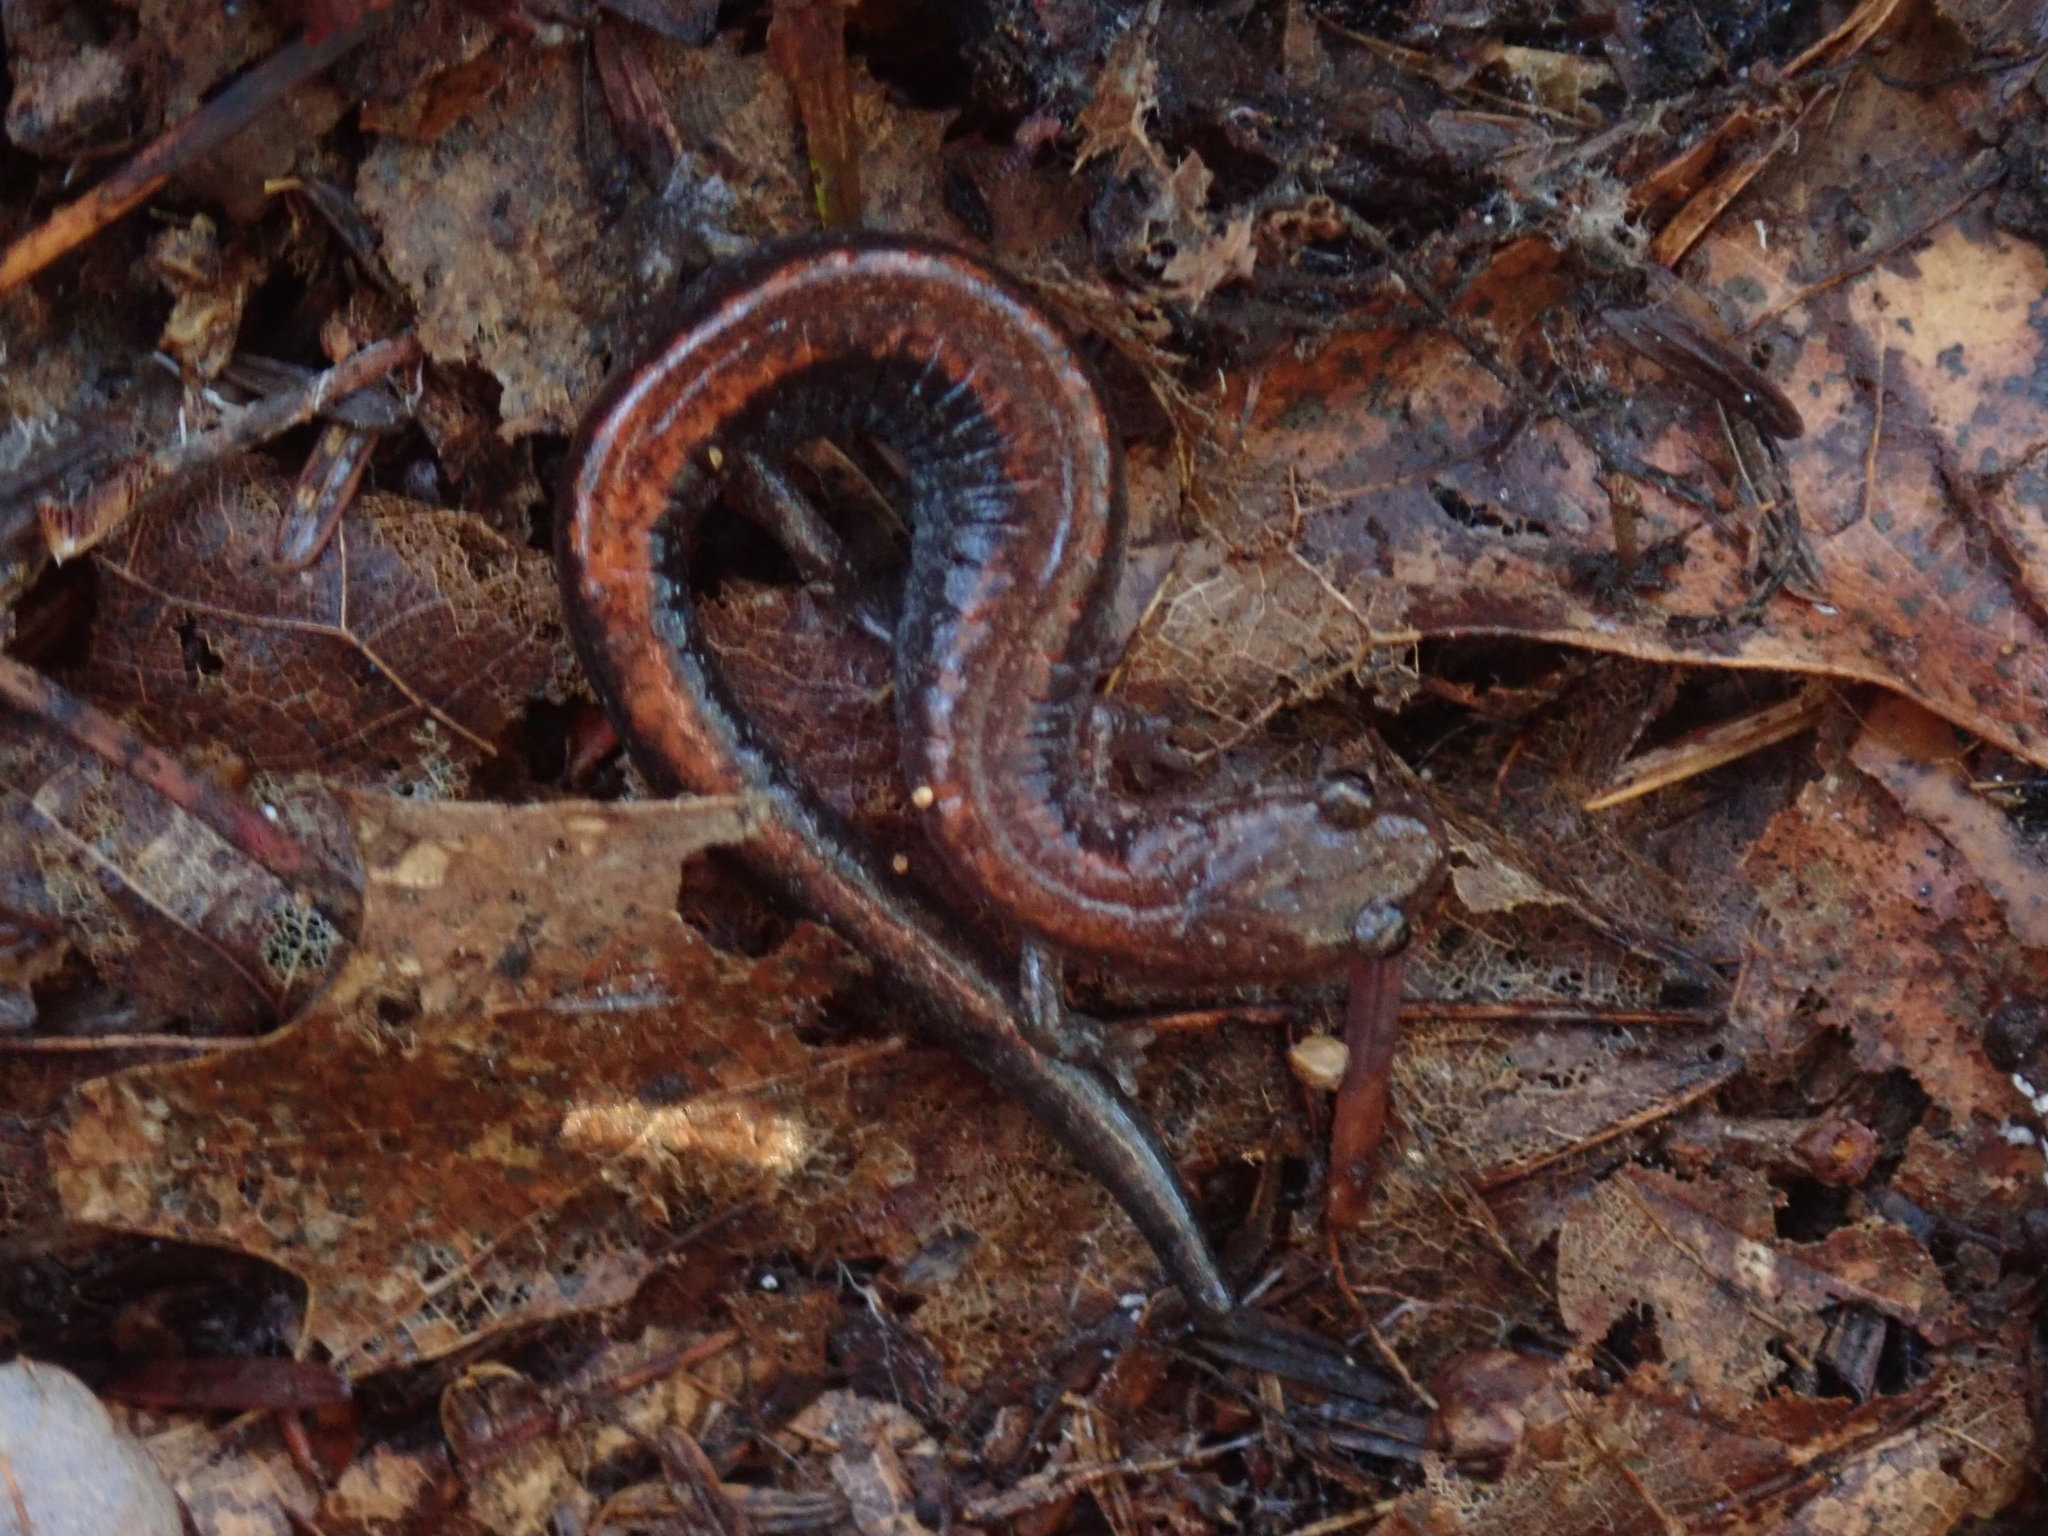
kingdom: Animalia
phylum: Chordata
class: Amphibia
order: Caudata
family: Plethodontidae
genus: Plethodon
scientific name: Plethodon cinereus
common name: Redback salamander
